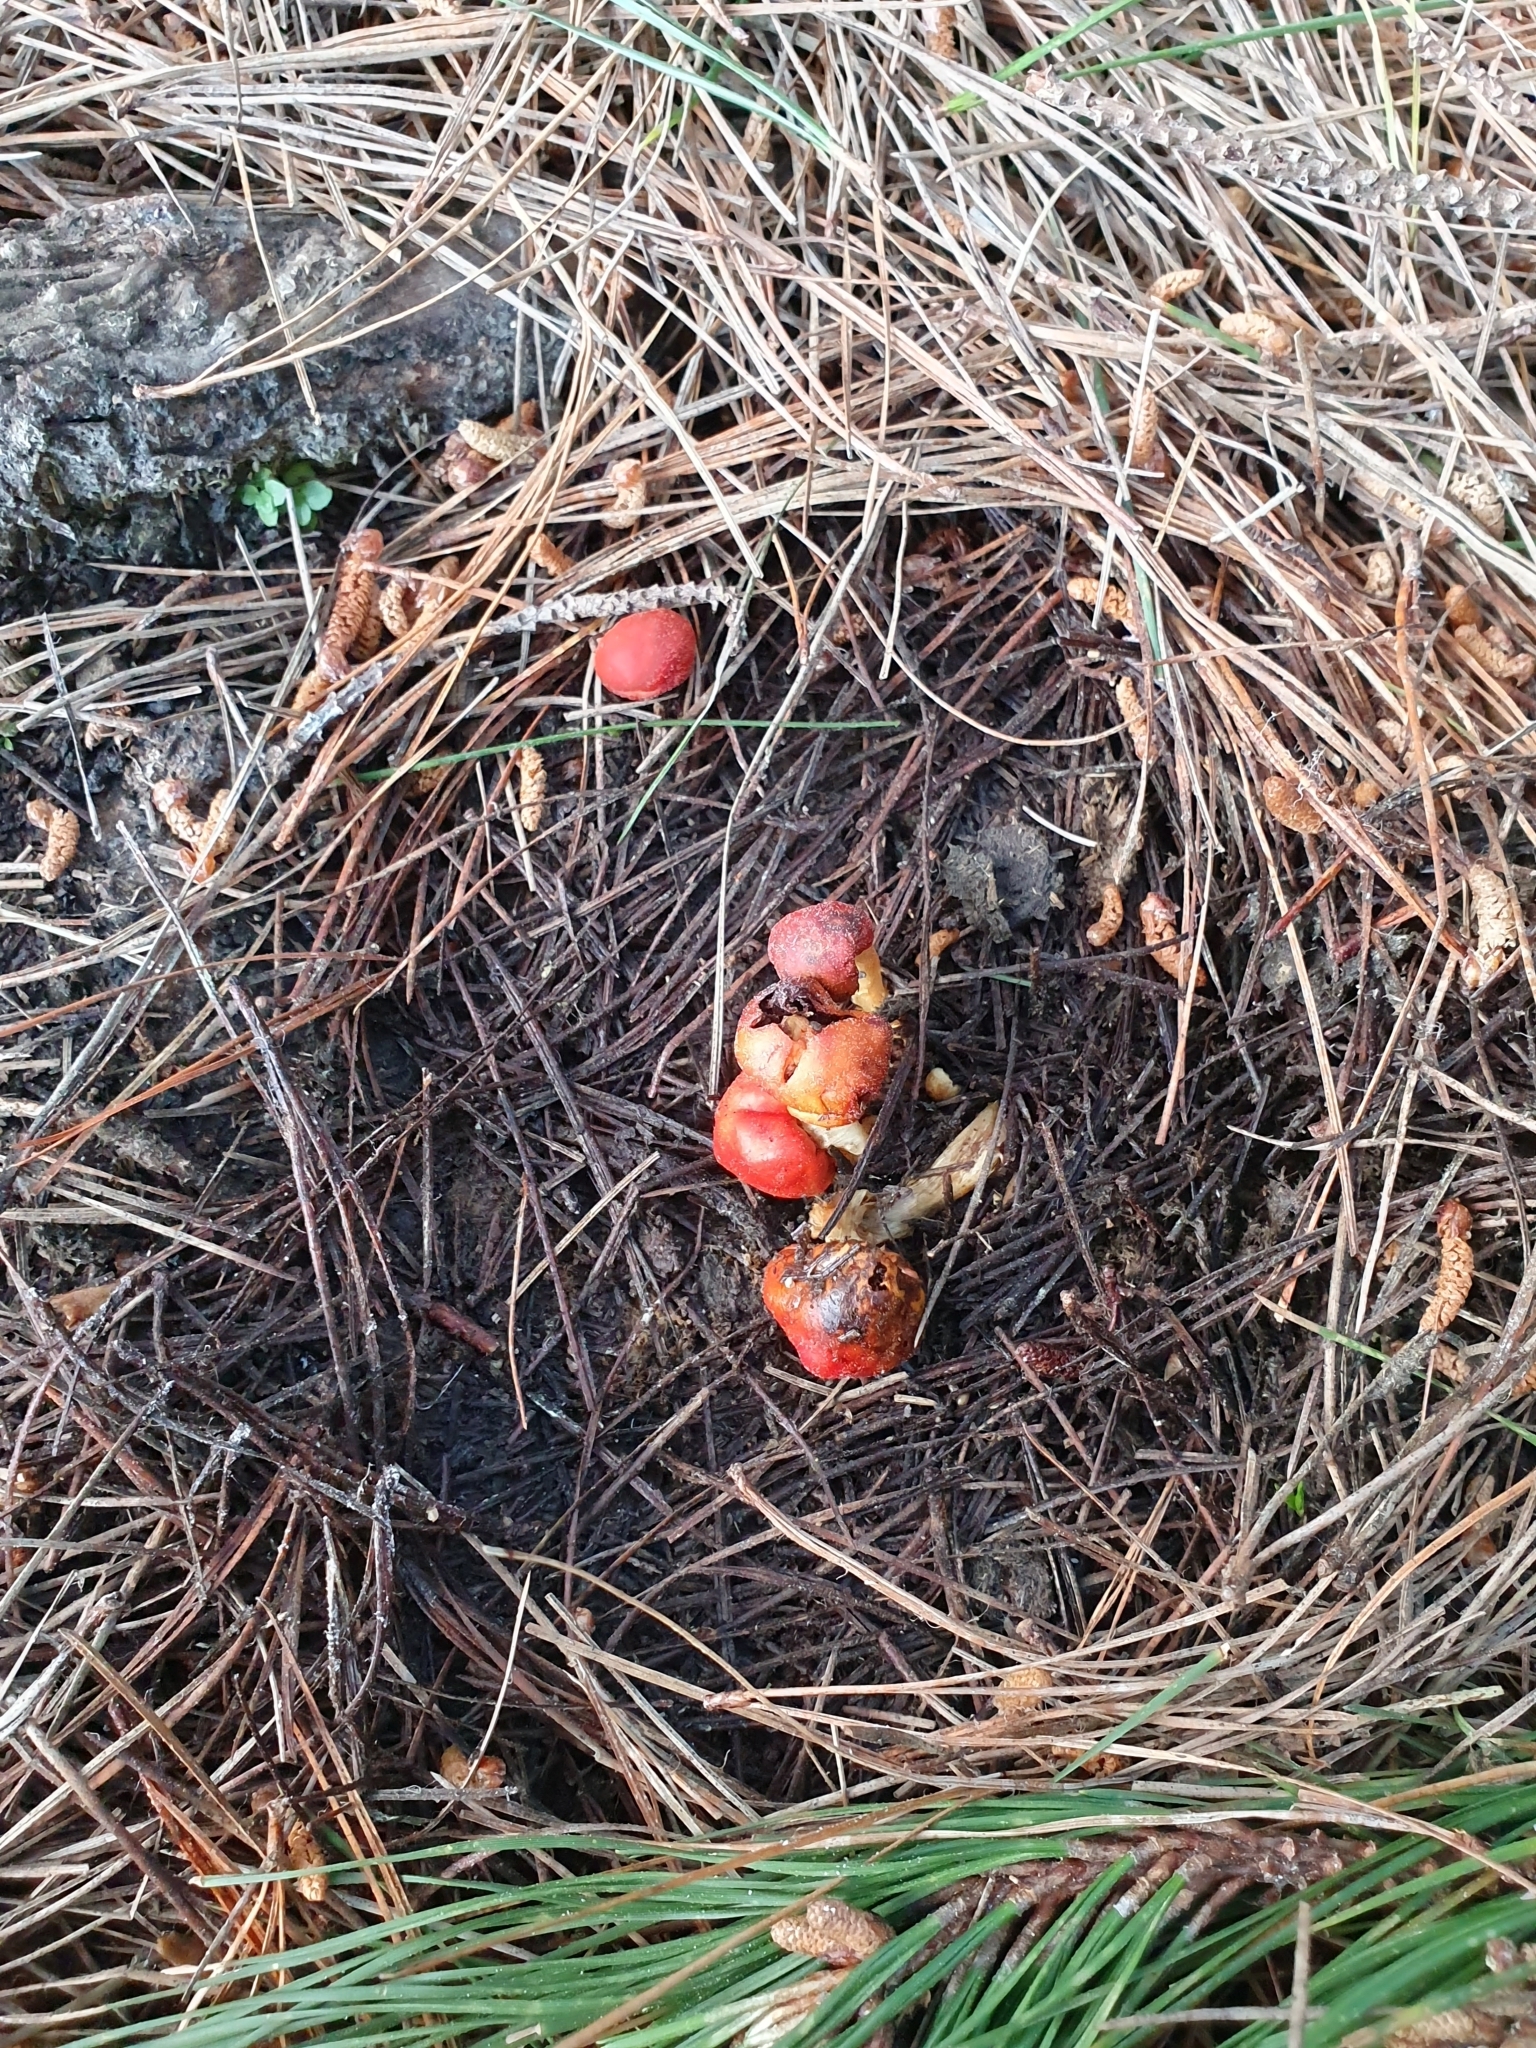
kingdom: Fungi
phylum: Basidiomycota
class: Agaricomycetes
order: Agaricales
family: Strophariaceae
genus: Leratiomyces
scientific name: Leratiomyces erythrocephalus
